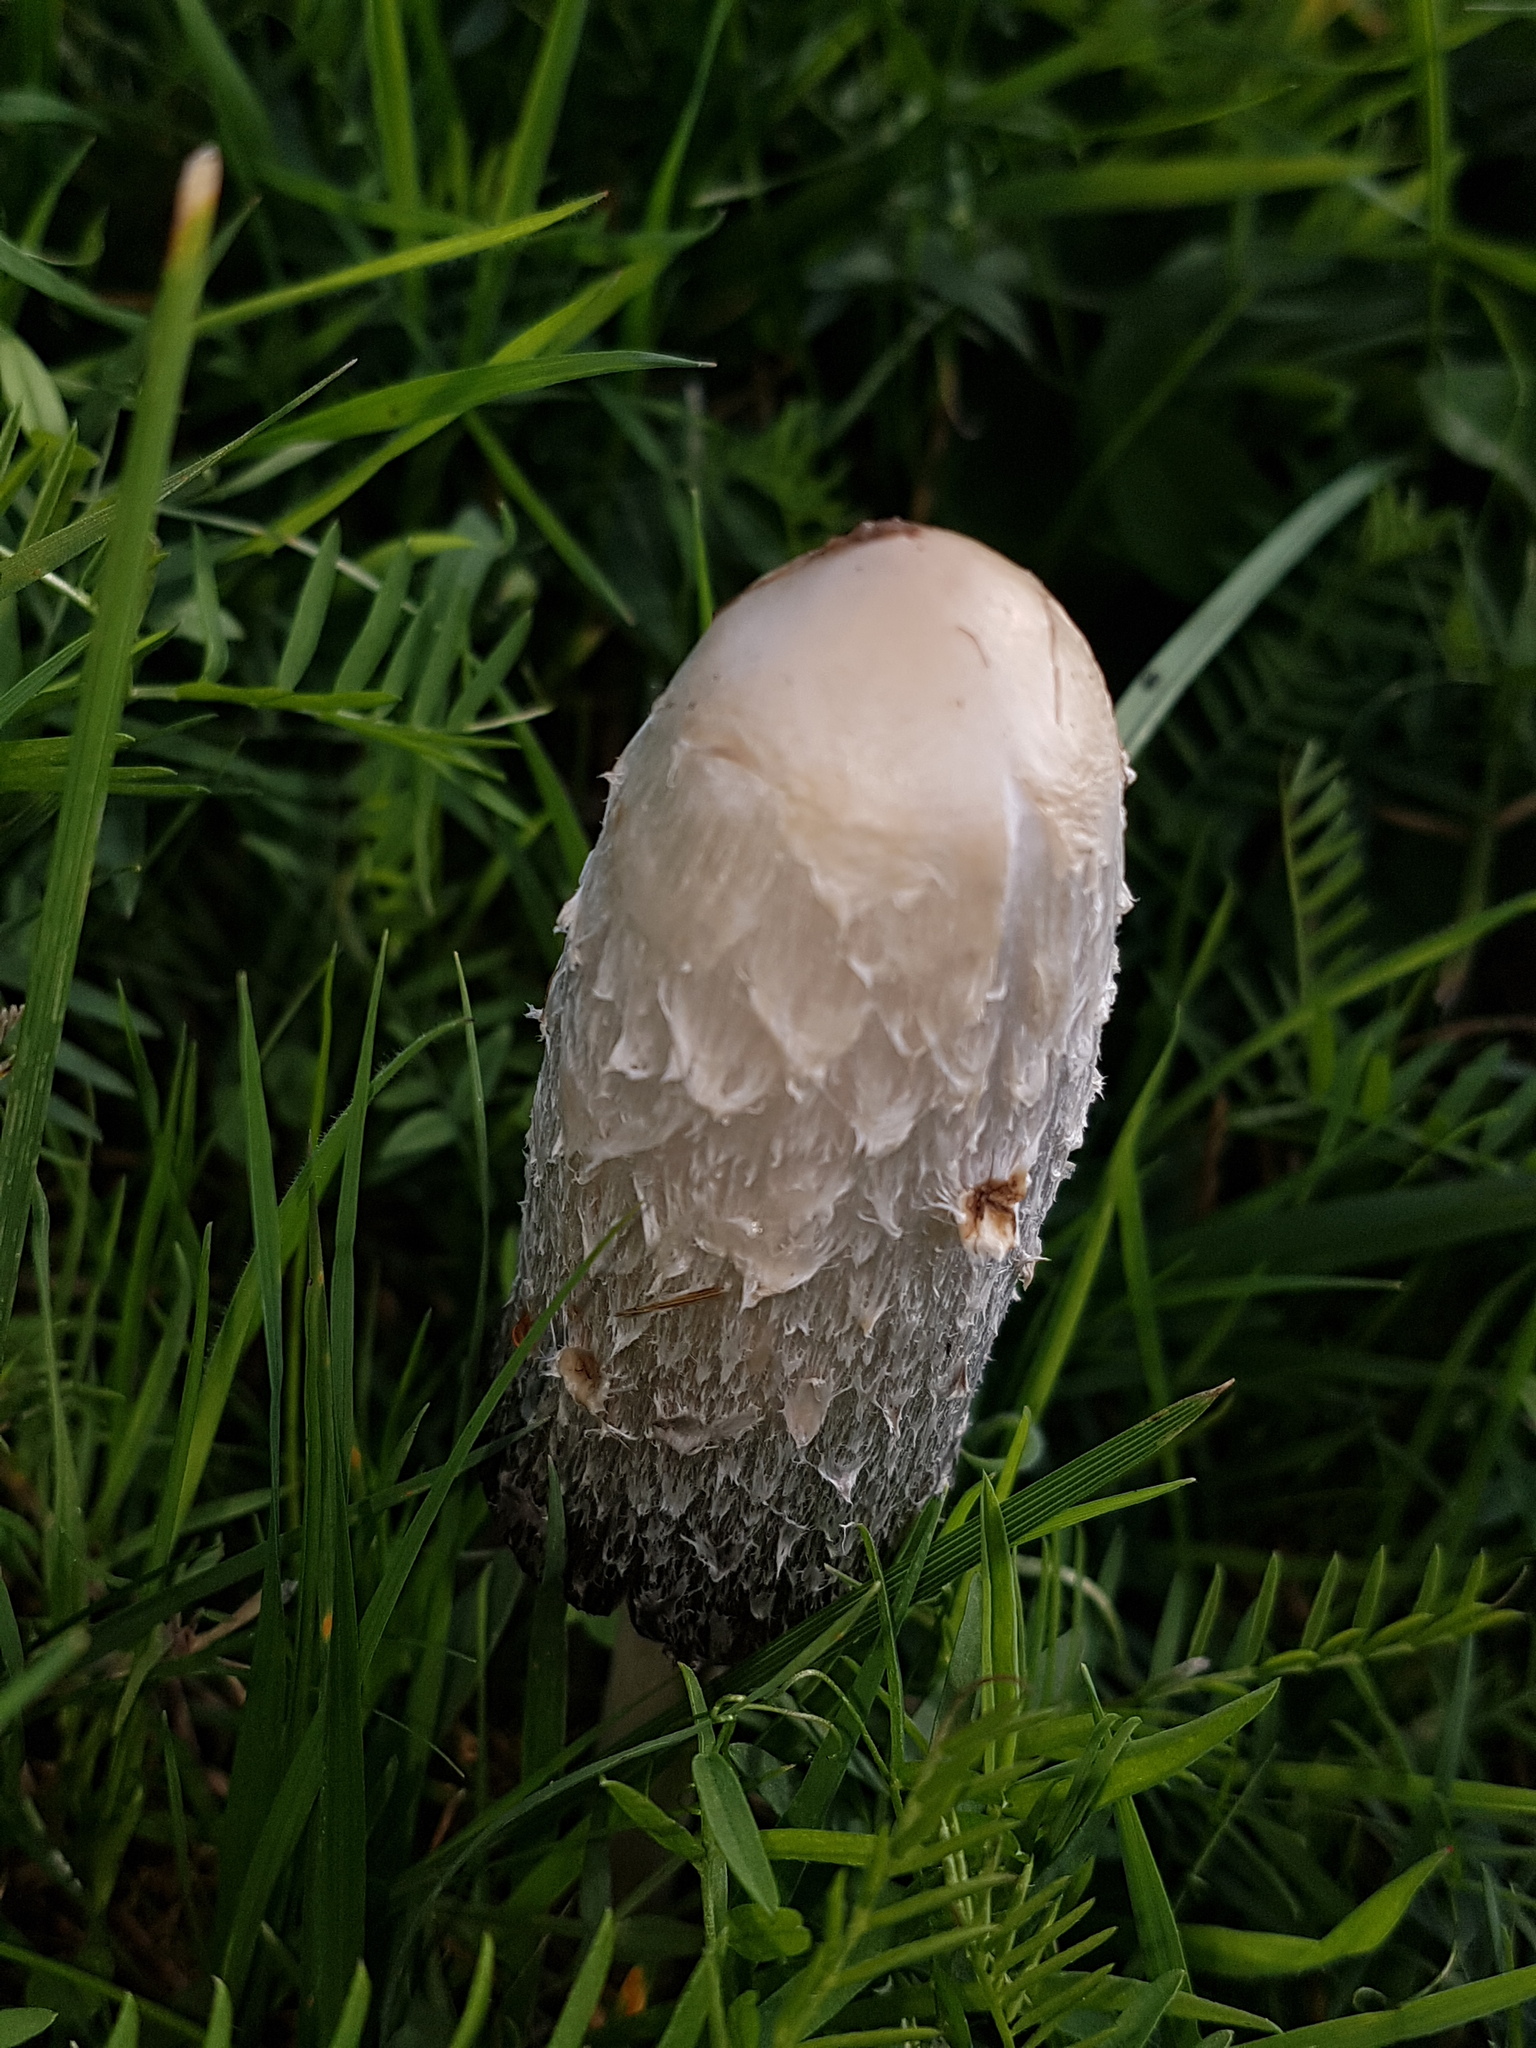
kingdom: Fungi
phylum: Basidiomycota
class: Agaricomycetes
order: Agaricales
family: Agaricaceae
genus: Coprinus
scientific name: Coprinus comatus
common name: Lawyer's wig
